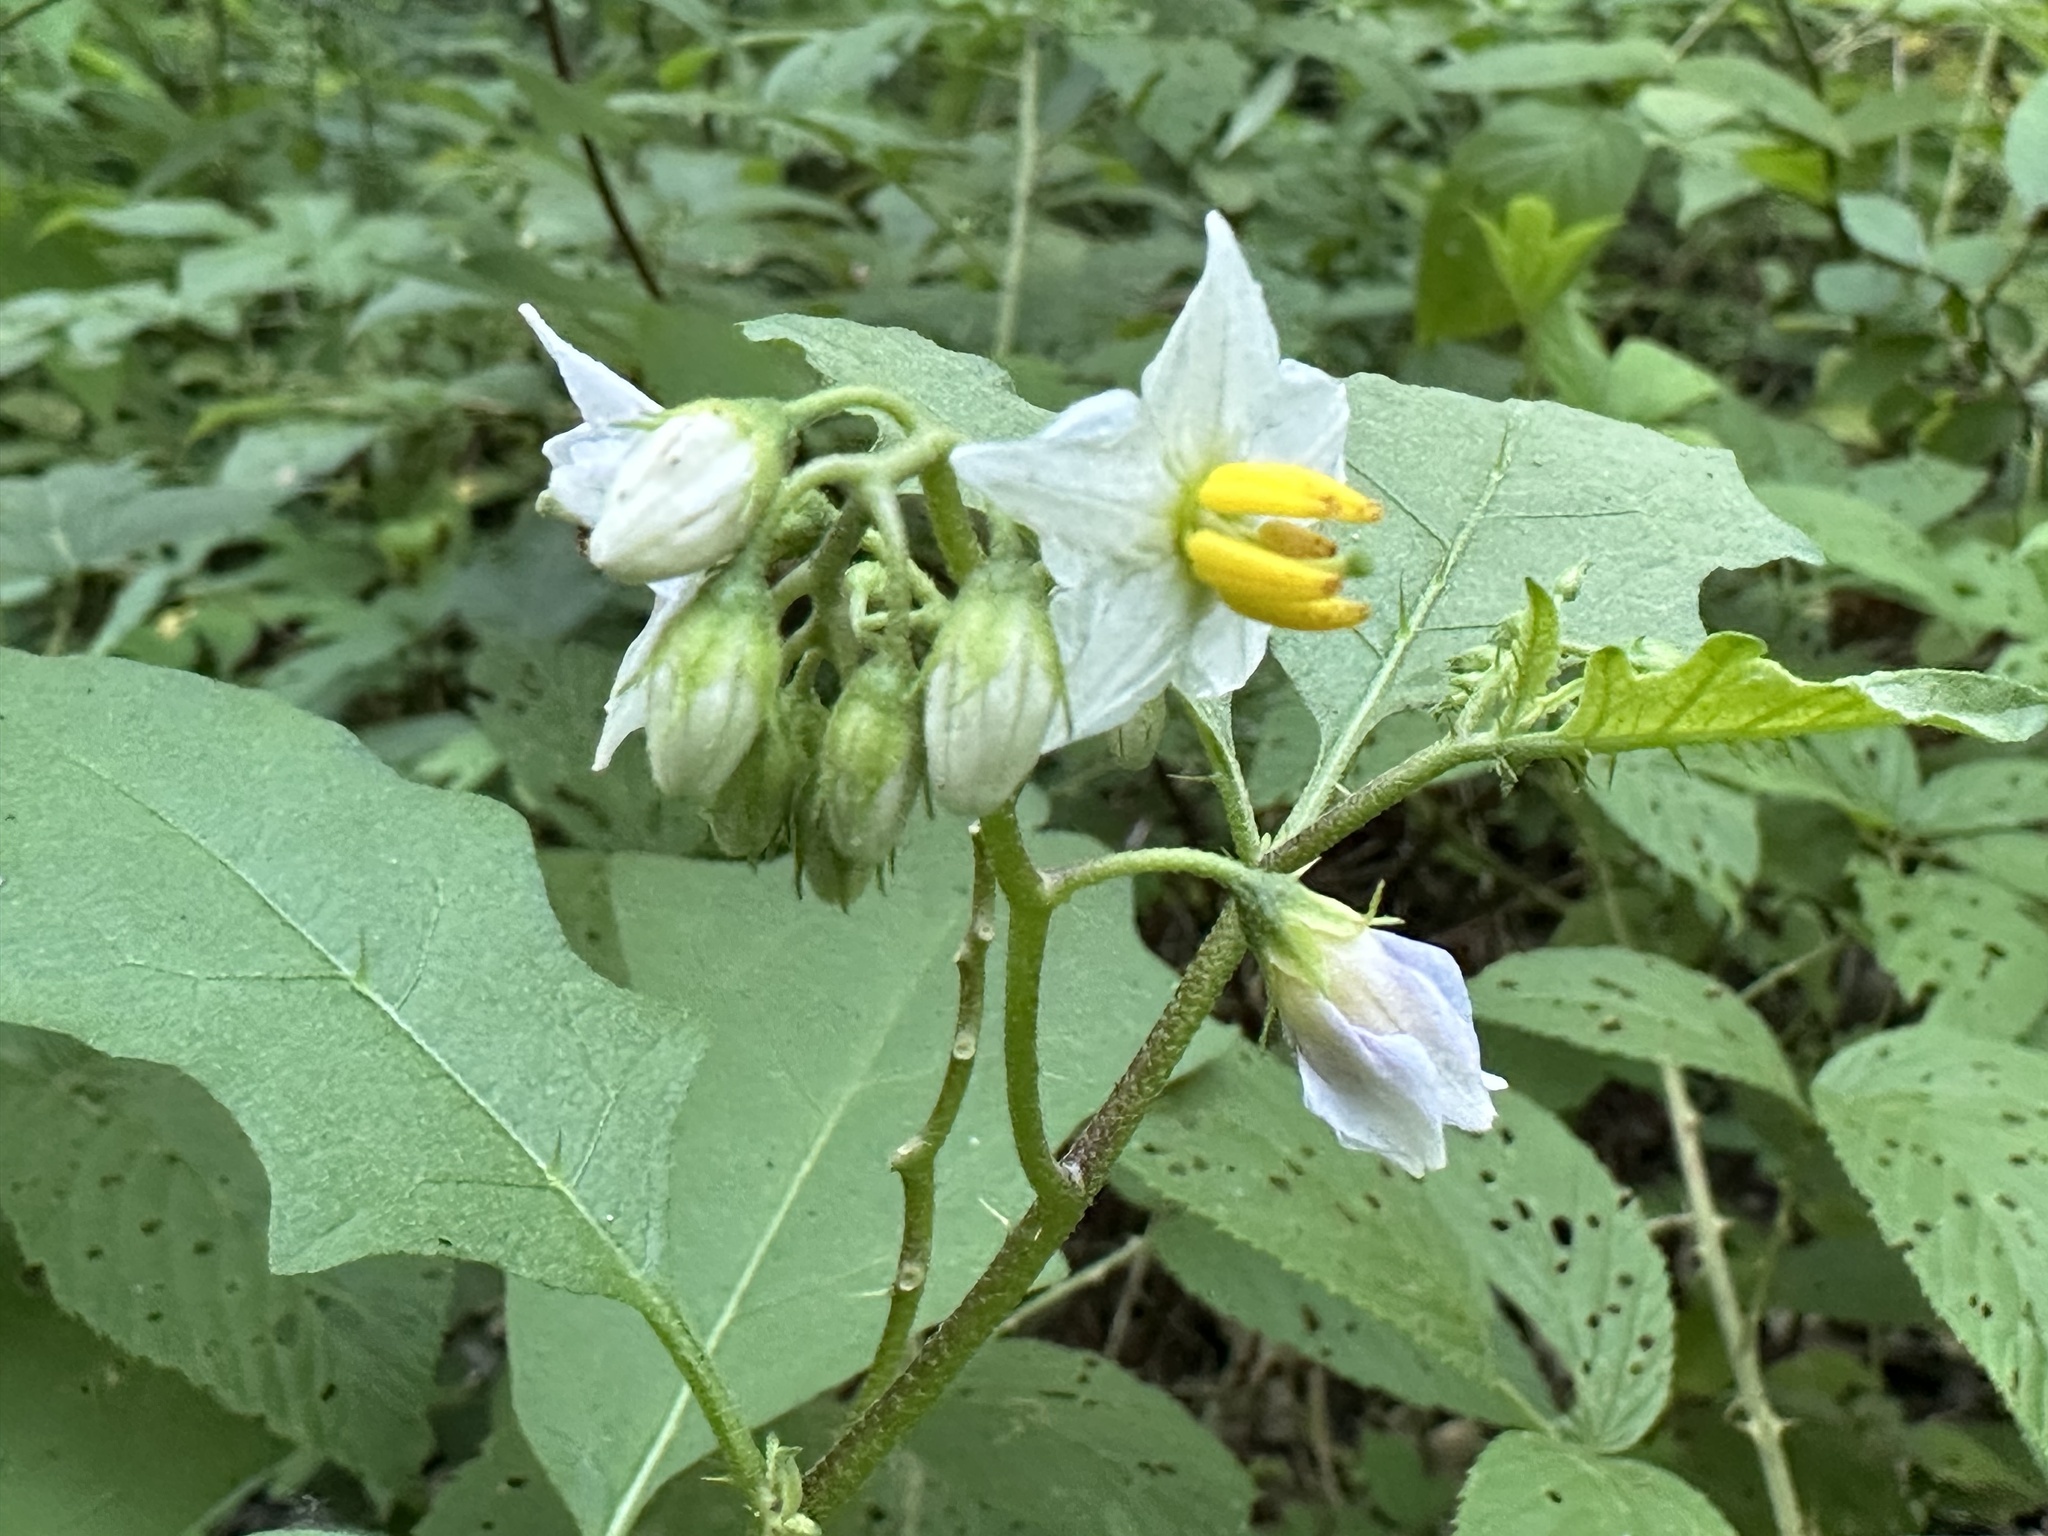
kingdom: Plantae
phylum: Tracheophyta
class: Magnoliopsida
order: Solanales
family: Solanaceae
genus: Solanum
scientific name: Solanum carolinense
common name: Horse-nettle
